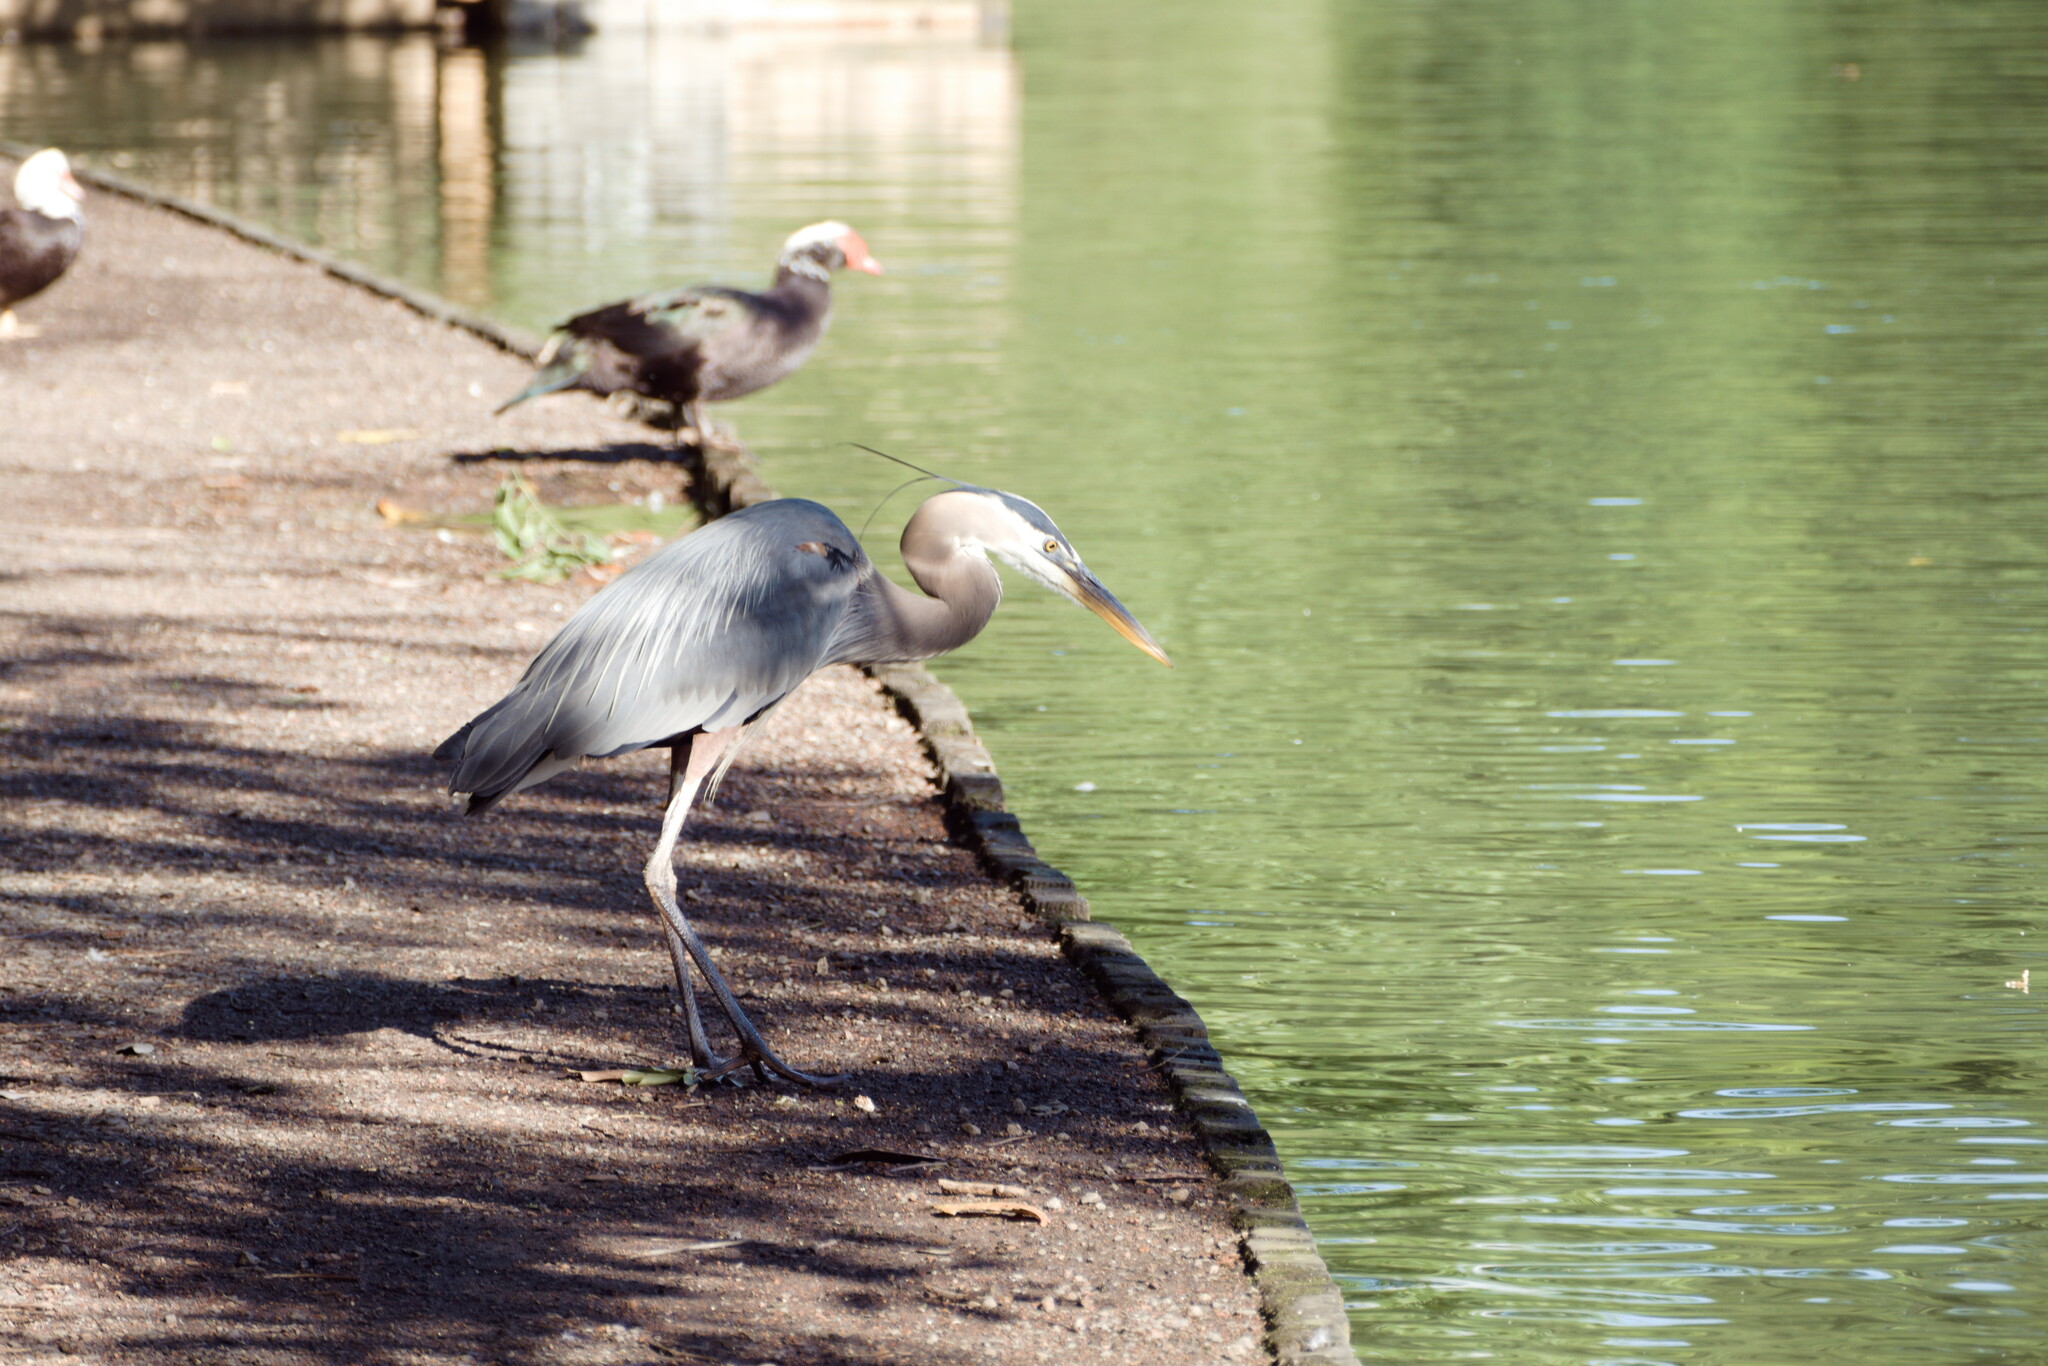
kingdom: Animalia
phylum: Chordata
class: Aves
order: Pelecaniformes
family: Ardeidae
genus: Ardea
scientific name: Ardea herodias
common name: Great blue heron
